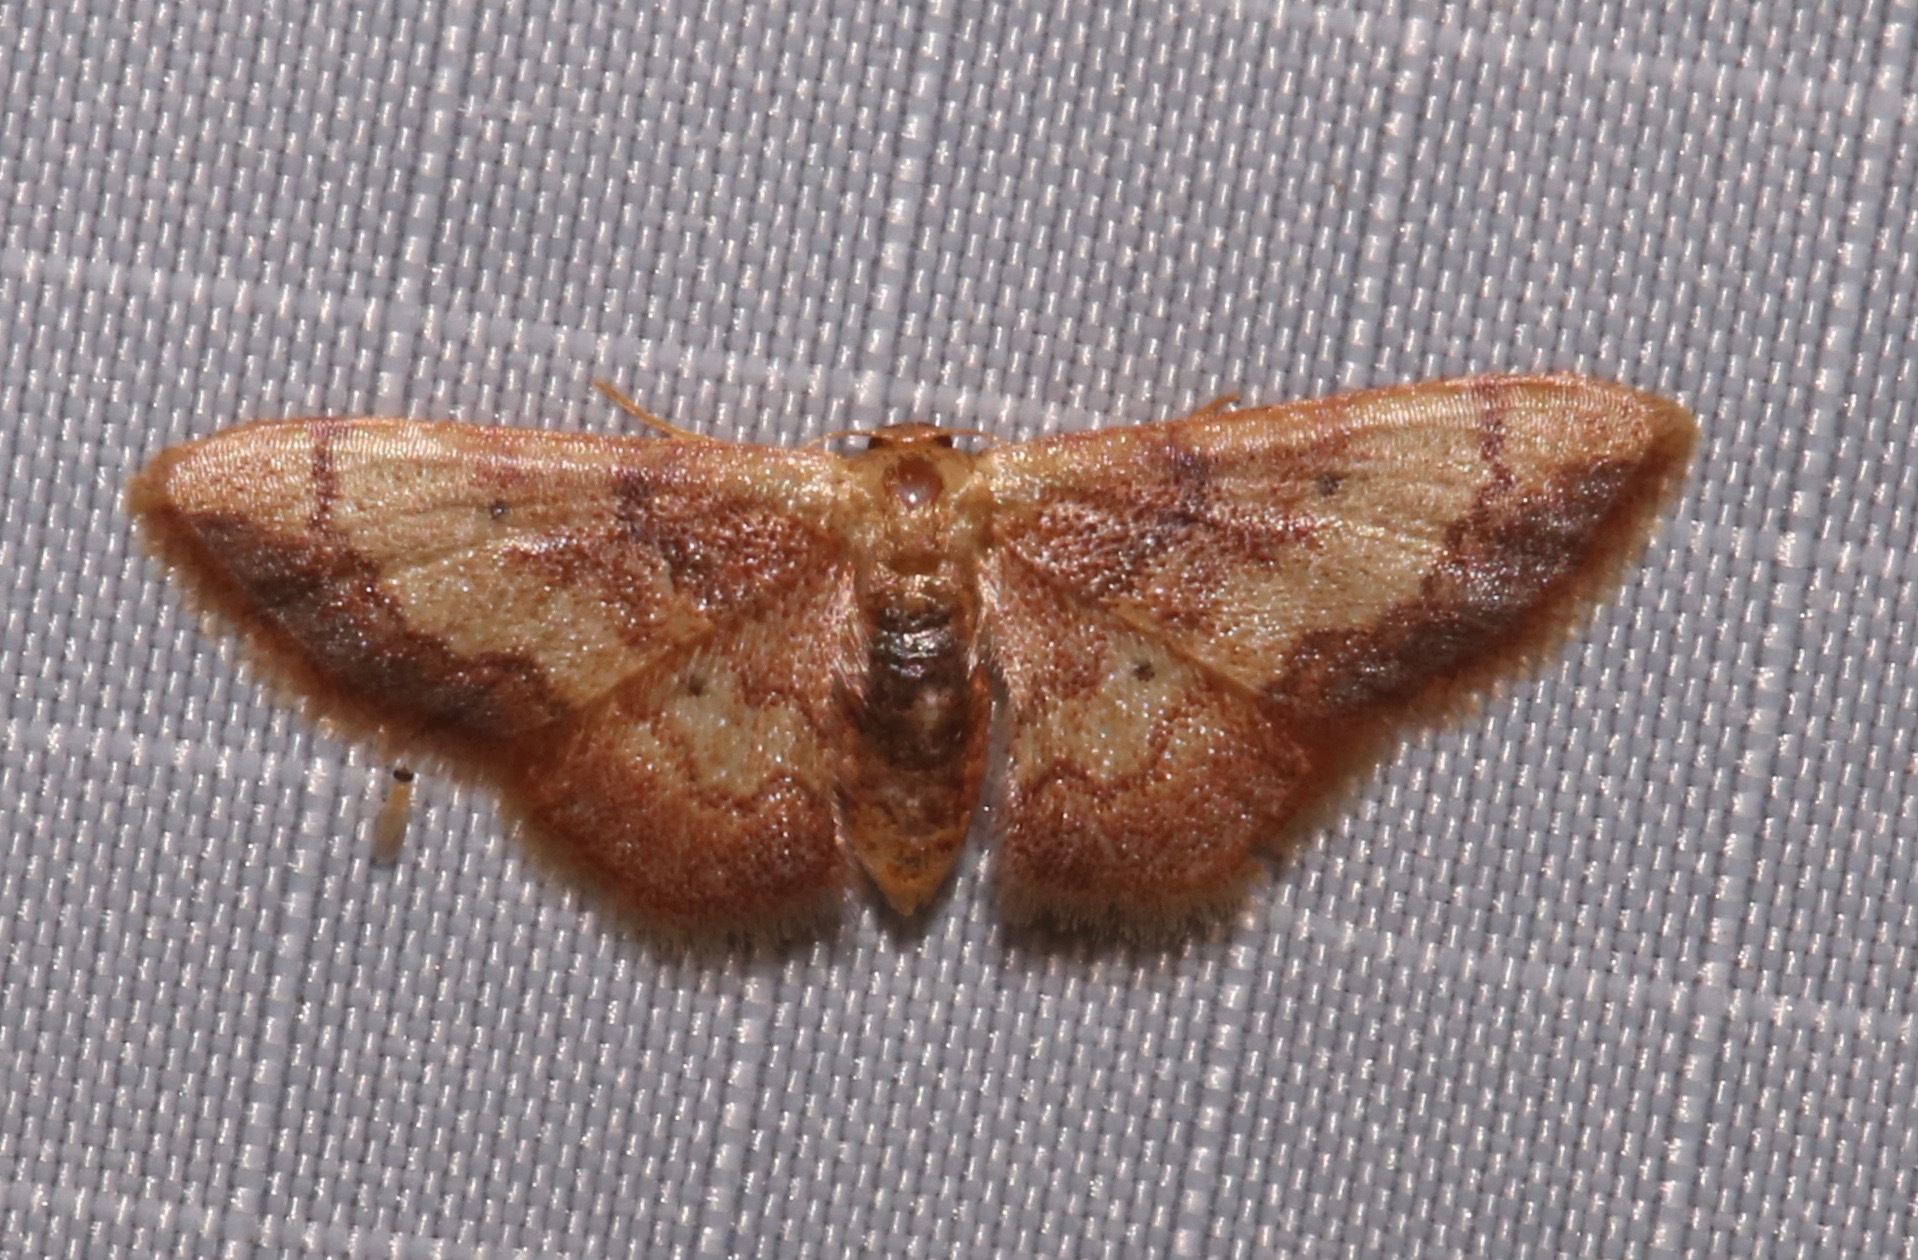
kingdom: Animalia
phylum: Arthropoda
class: Insecta
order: Lepidoptera
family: Geometridae
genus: Idaea
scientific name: Idaea demissaria
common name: Red-bordered wave
